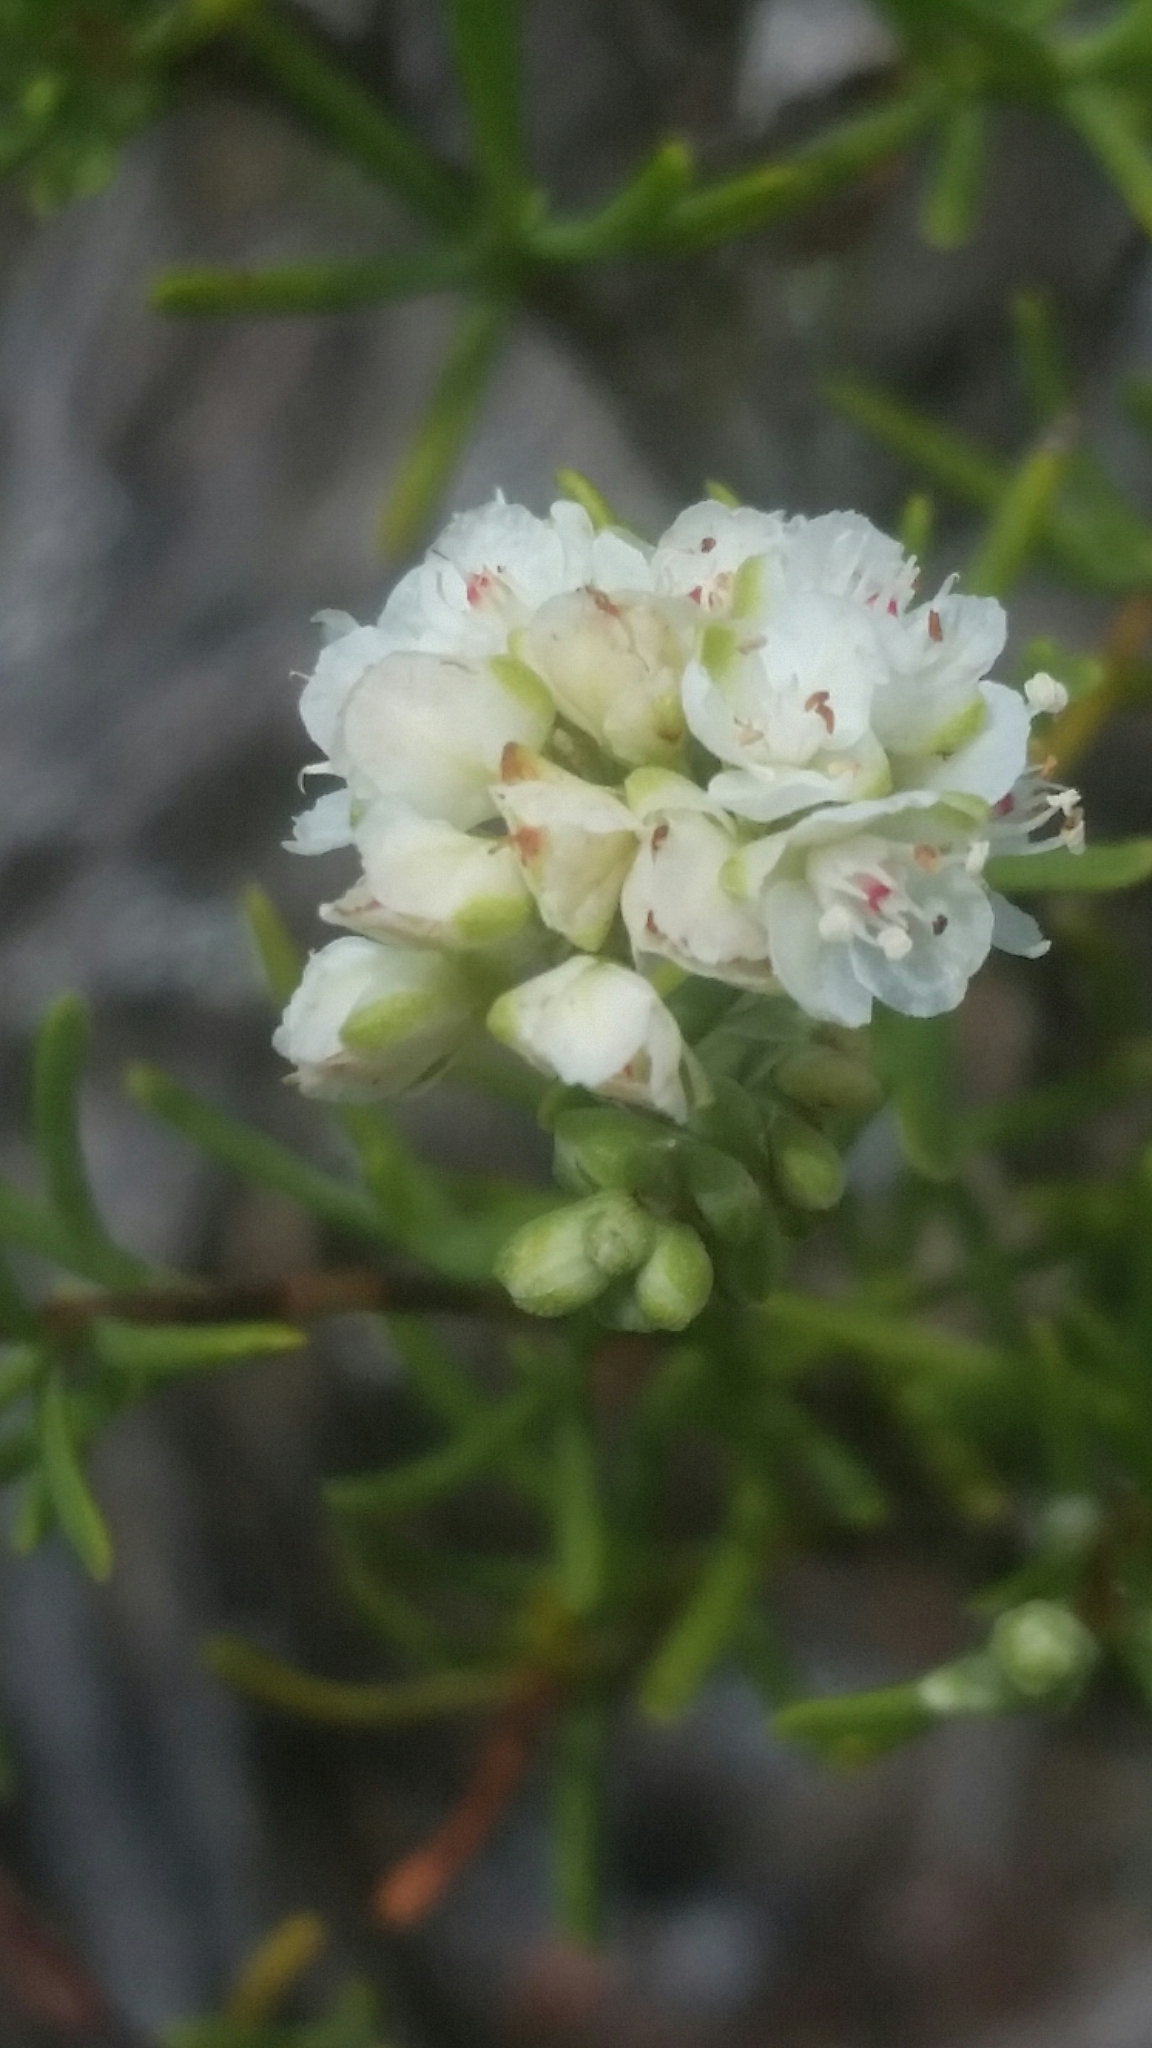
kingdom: Plantae
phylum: Tracheophyta
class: Magnoliopsida
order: Caryophyllales
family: Polygonaceae
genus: Polygonella
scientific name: Polygonella myriophylla
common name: Sandlace
